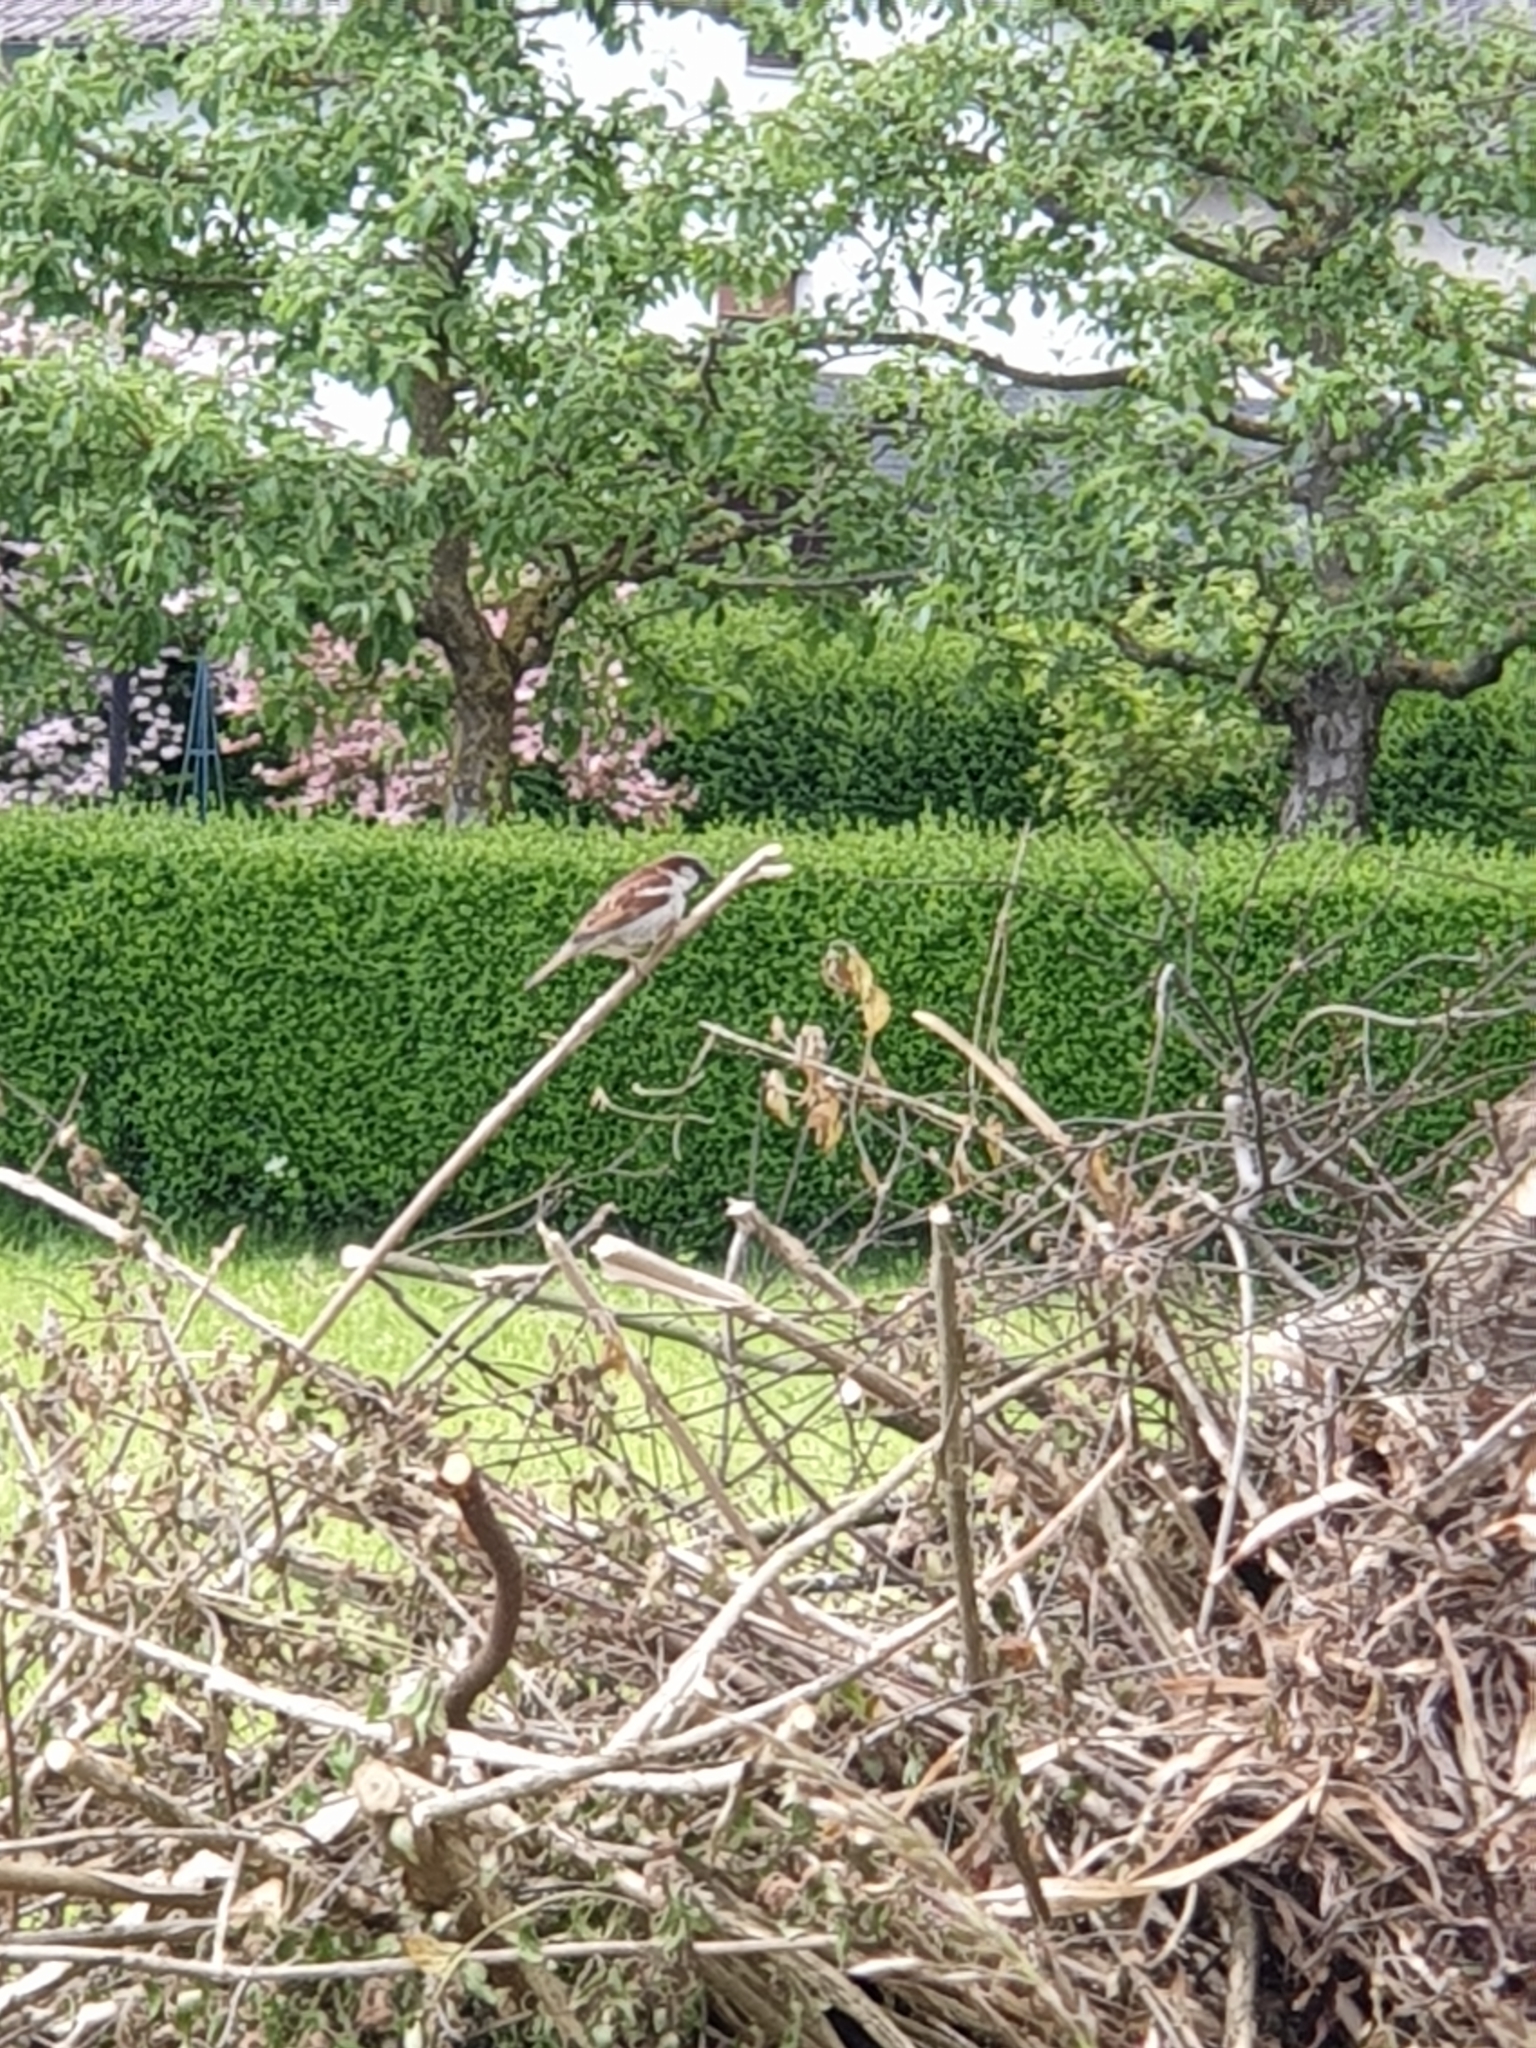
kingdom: Animalia
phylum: Chordata
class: Aves
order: Passeriformes
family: Passeridae
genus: Passer
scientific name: Passer domesticus
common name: House sparrow
